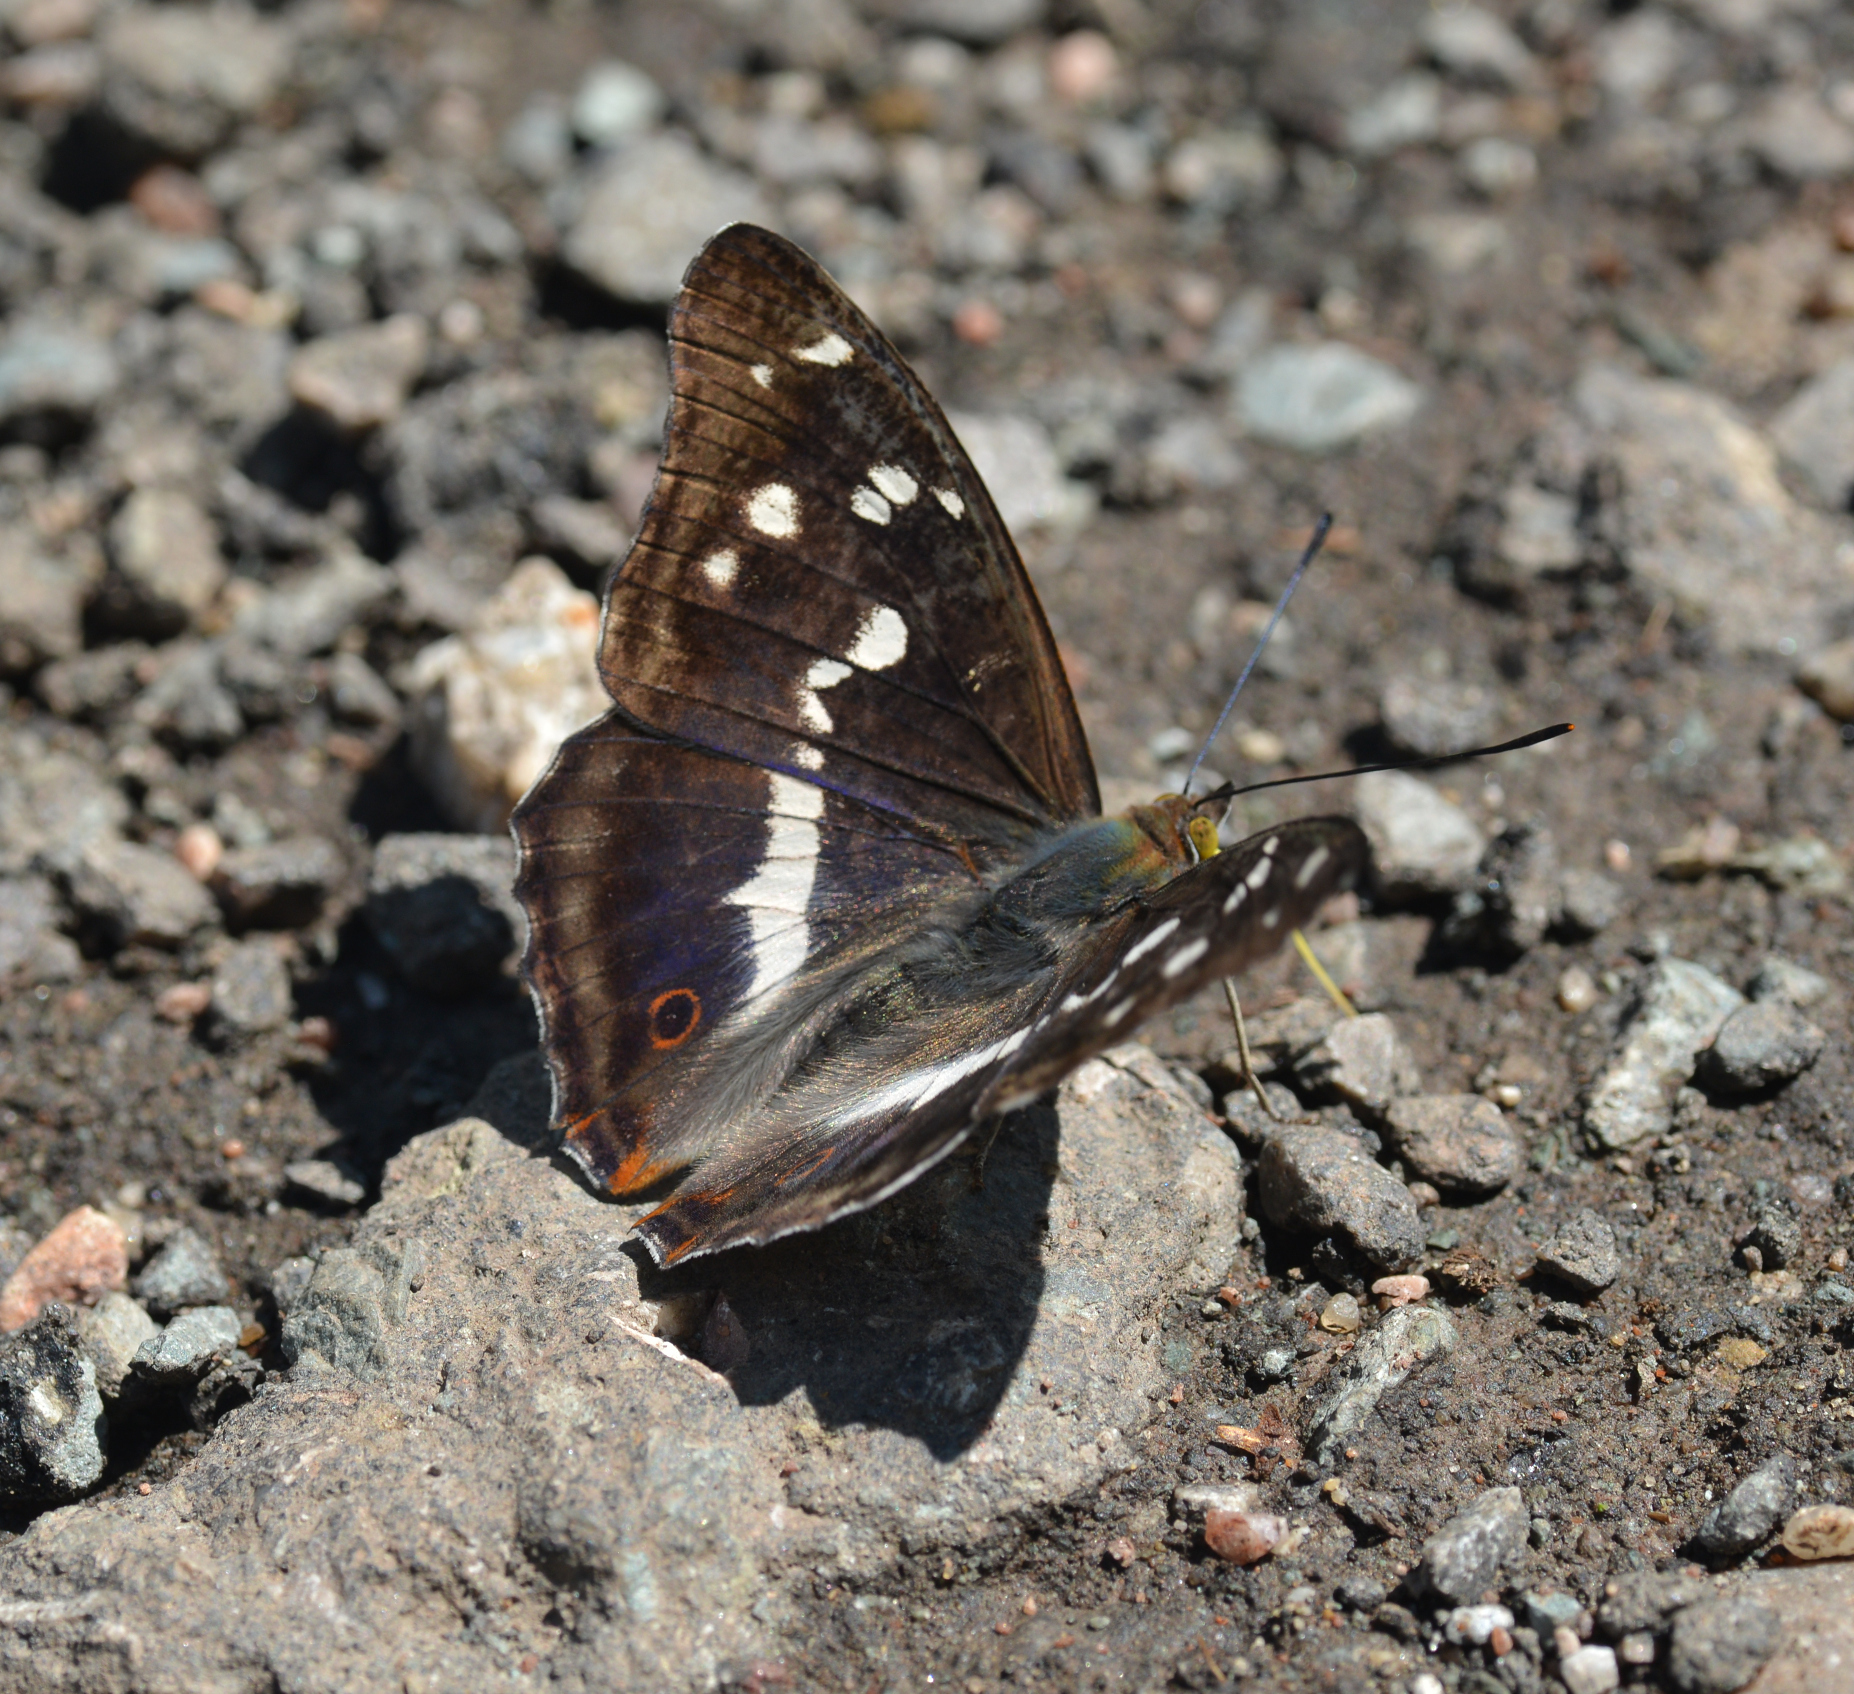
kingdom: Animalia
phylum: Arthropoda
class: Insecta
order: Lepidoptera
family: Nymphalidae
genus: Apatura
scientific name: Apatura iris
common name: Purple emperor
